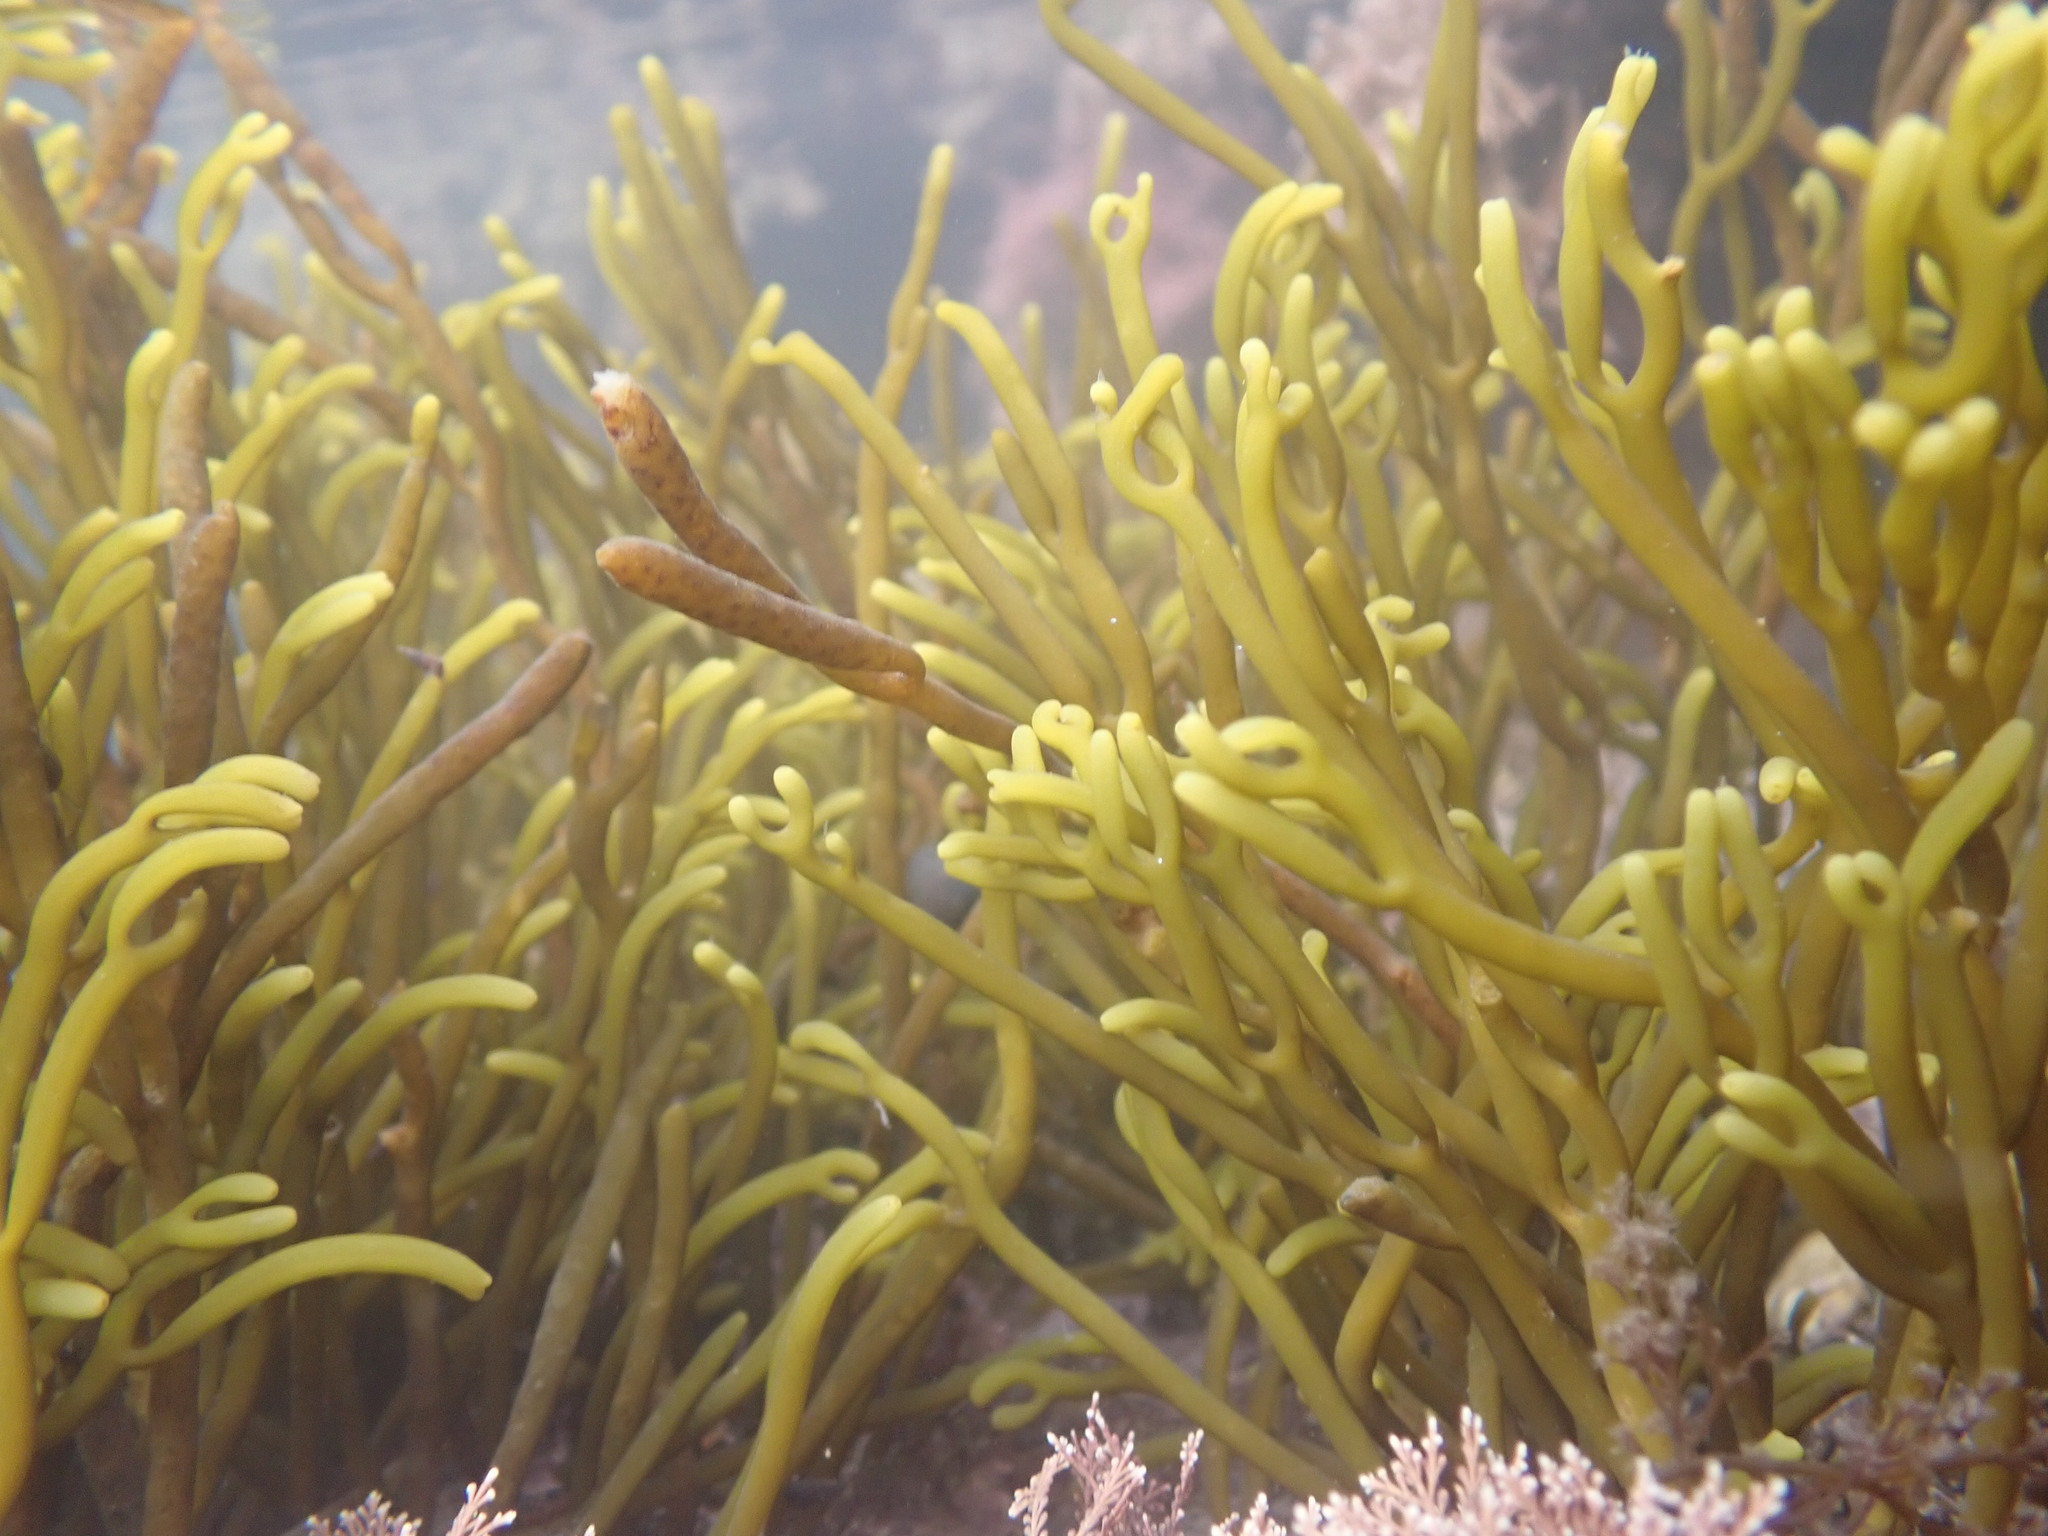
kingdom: Chromista
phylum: Ochrophyta
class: Phaeophyceae
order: Fucales
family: Sargassaceae
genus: Bifurcaria
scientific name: Bifurcaria bifurcata
